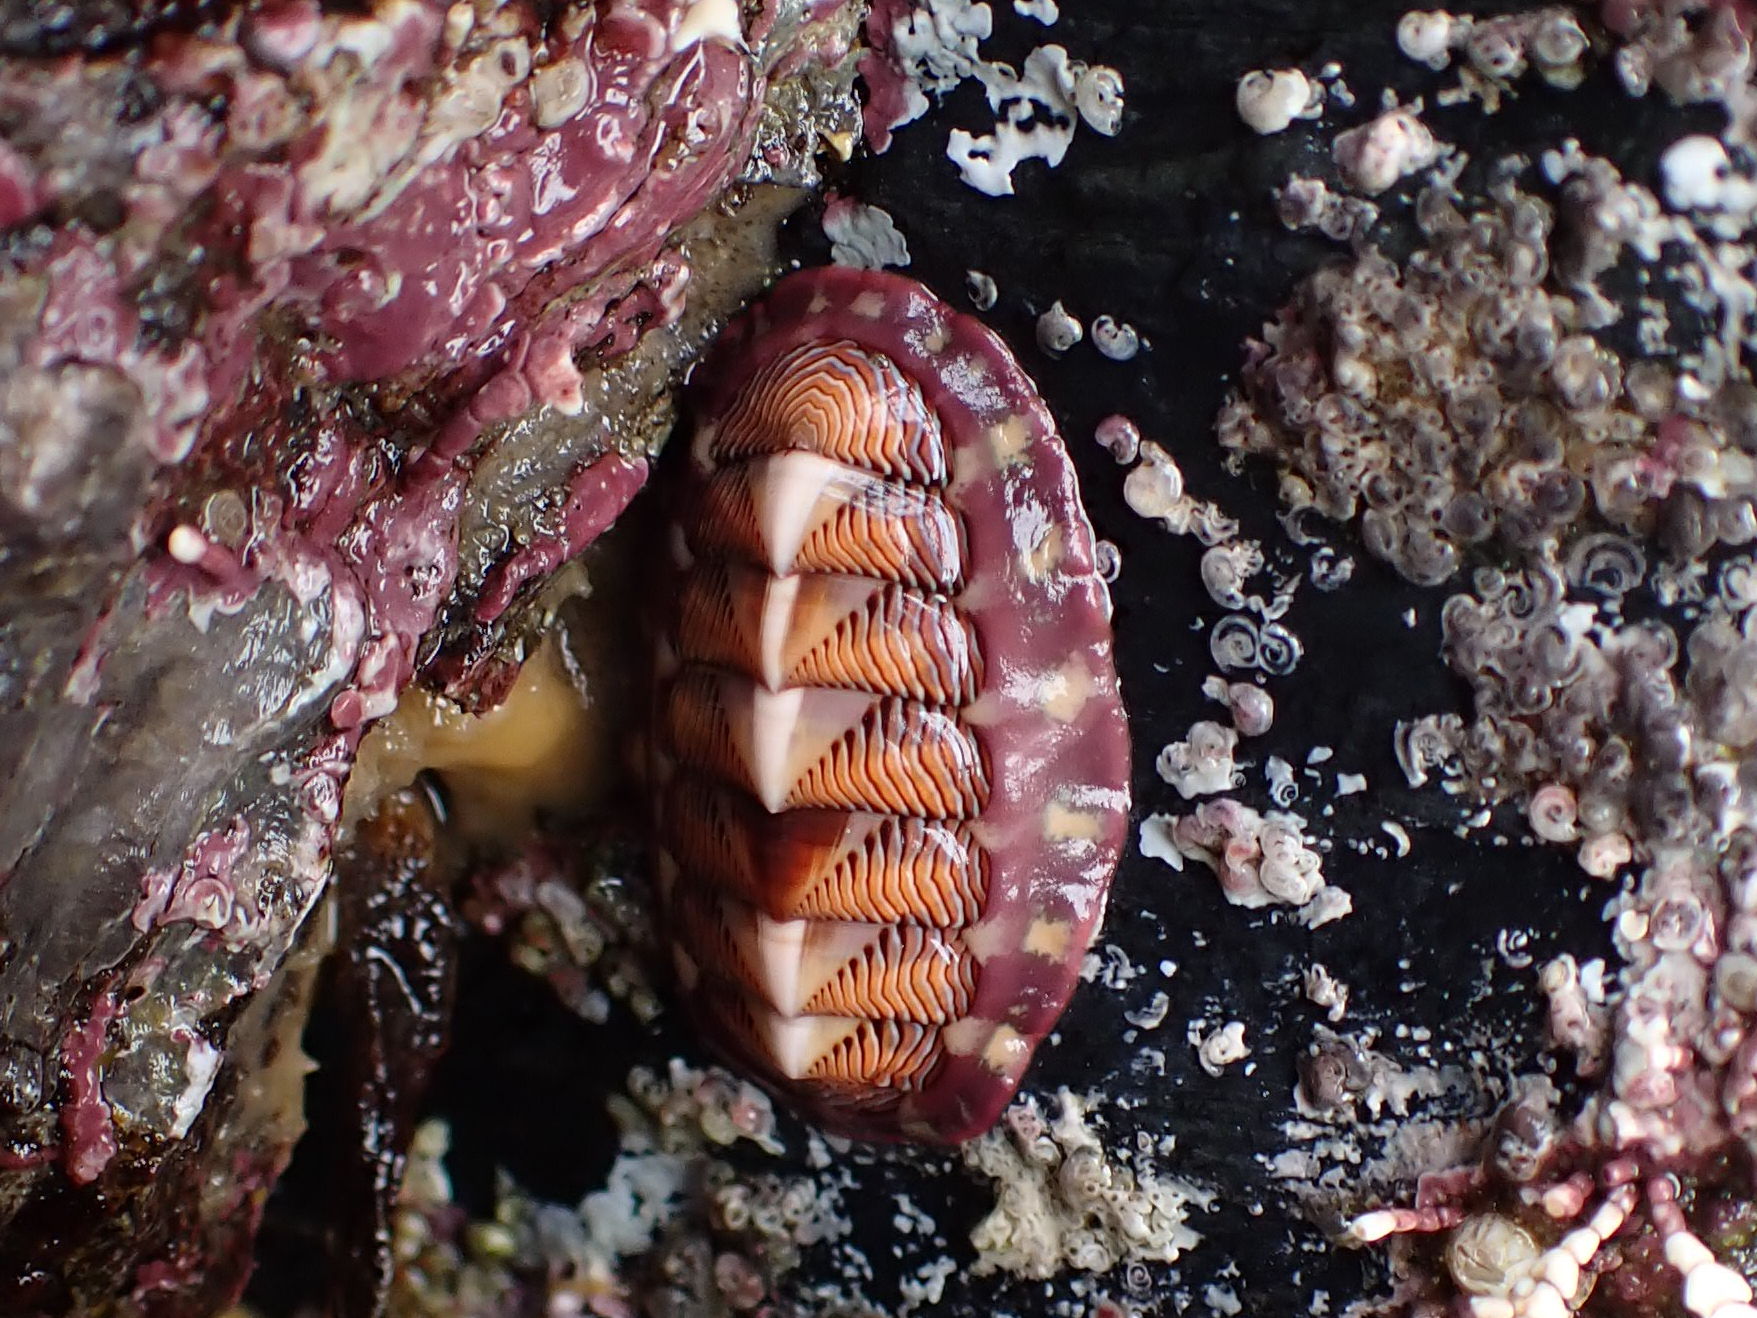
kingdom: Animalia
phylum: Mollusca
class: Polyplacophora
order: Chitonida
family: Tonicellidae
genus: Tonicella
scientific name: Tonicella lineata
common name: Lined chiton
